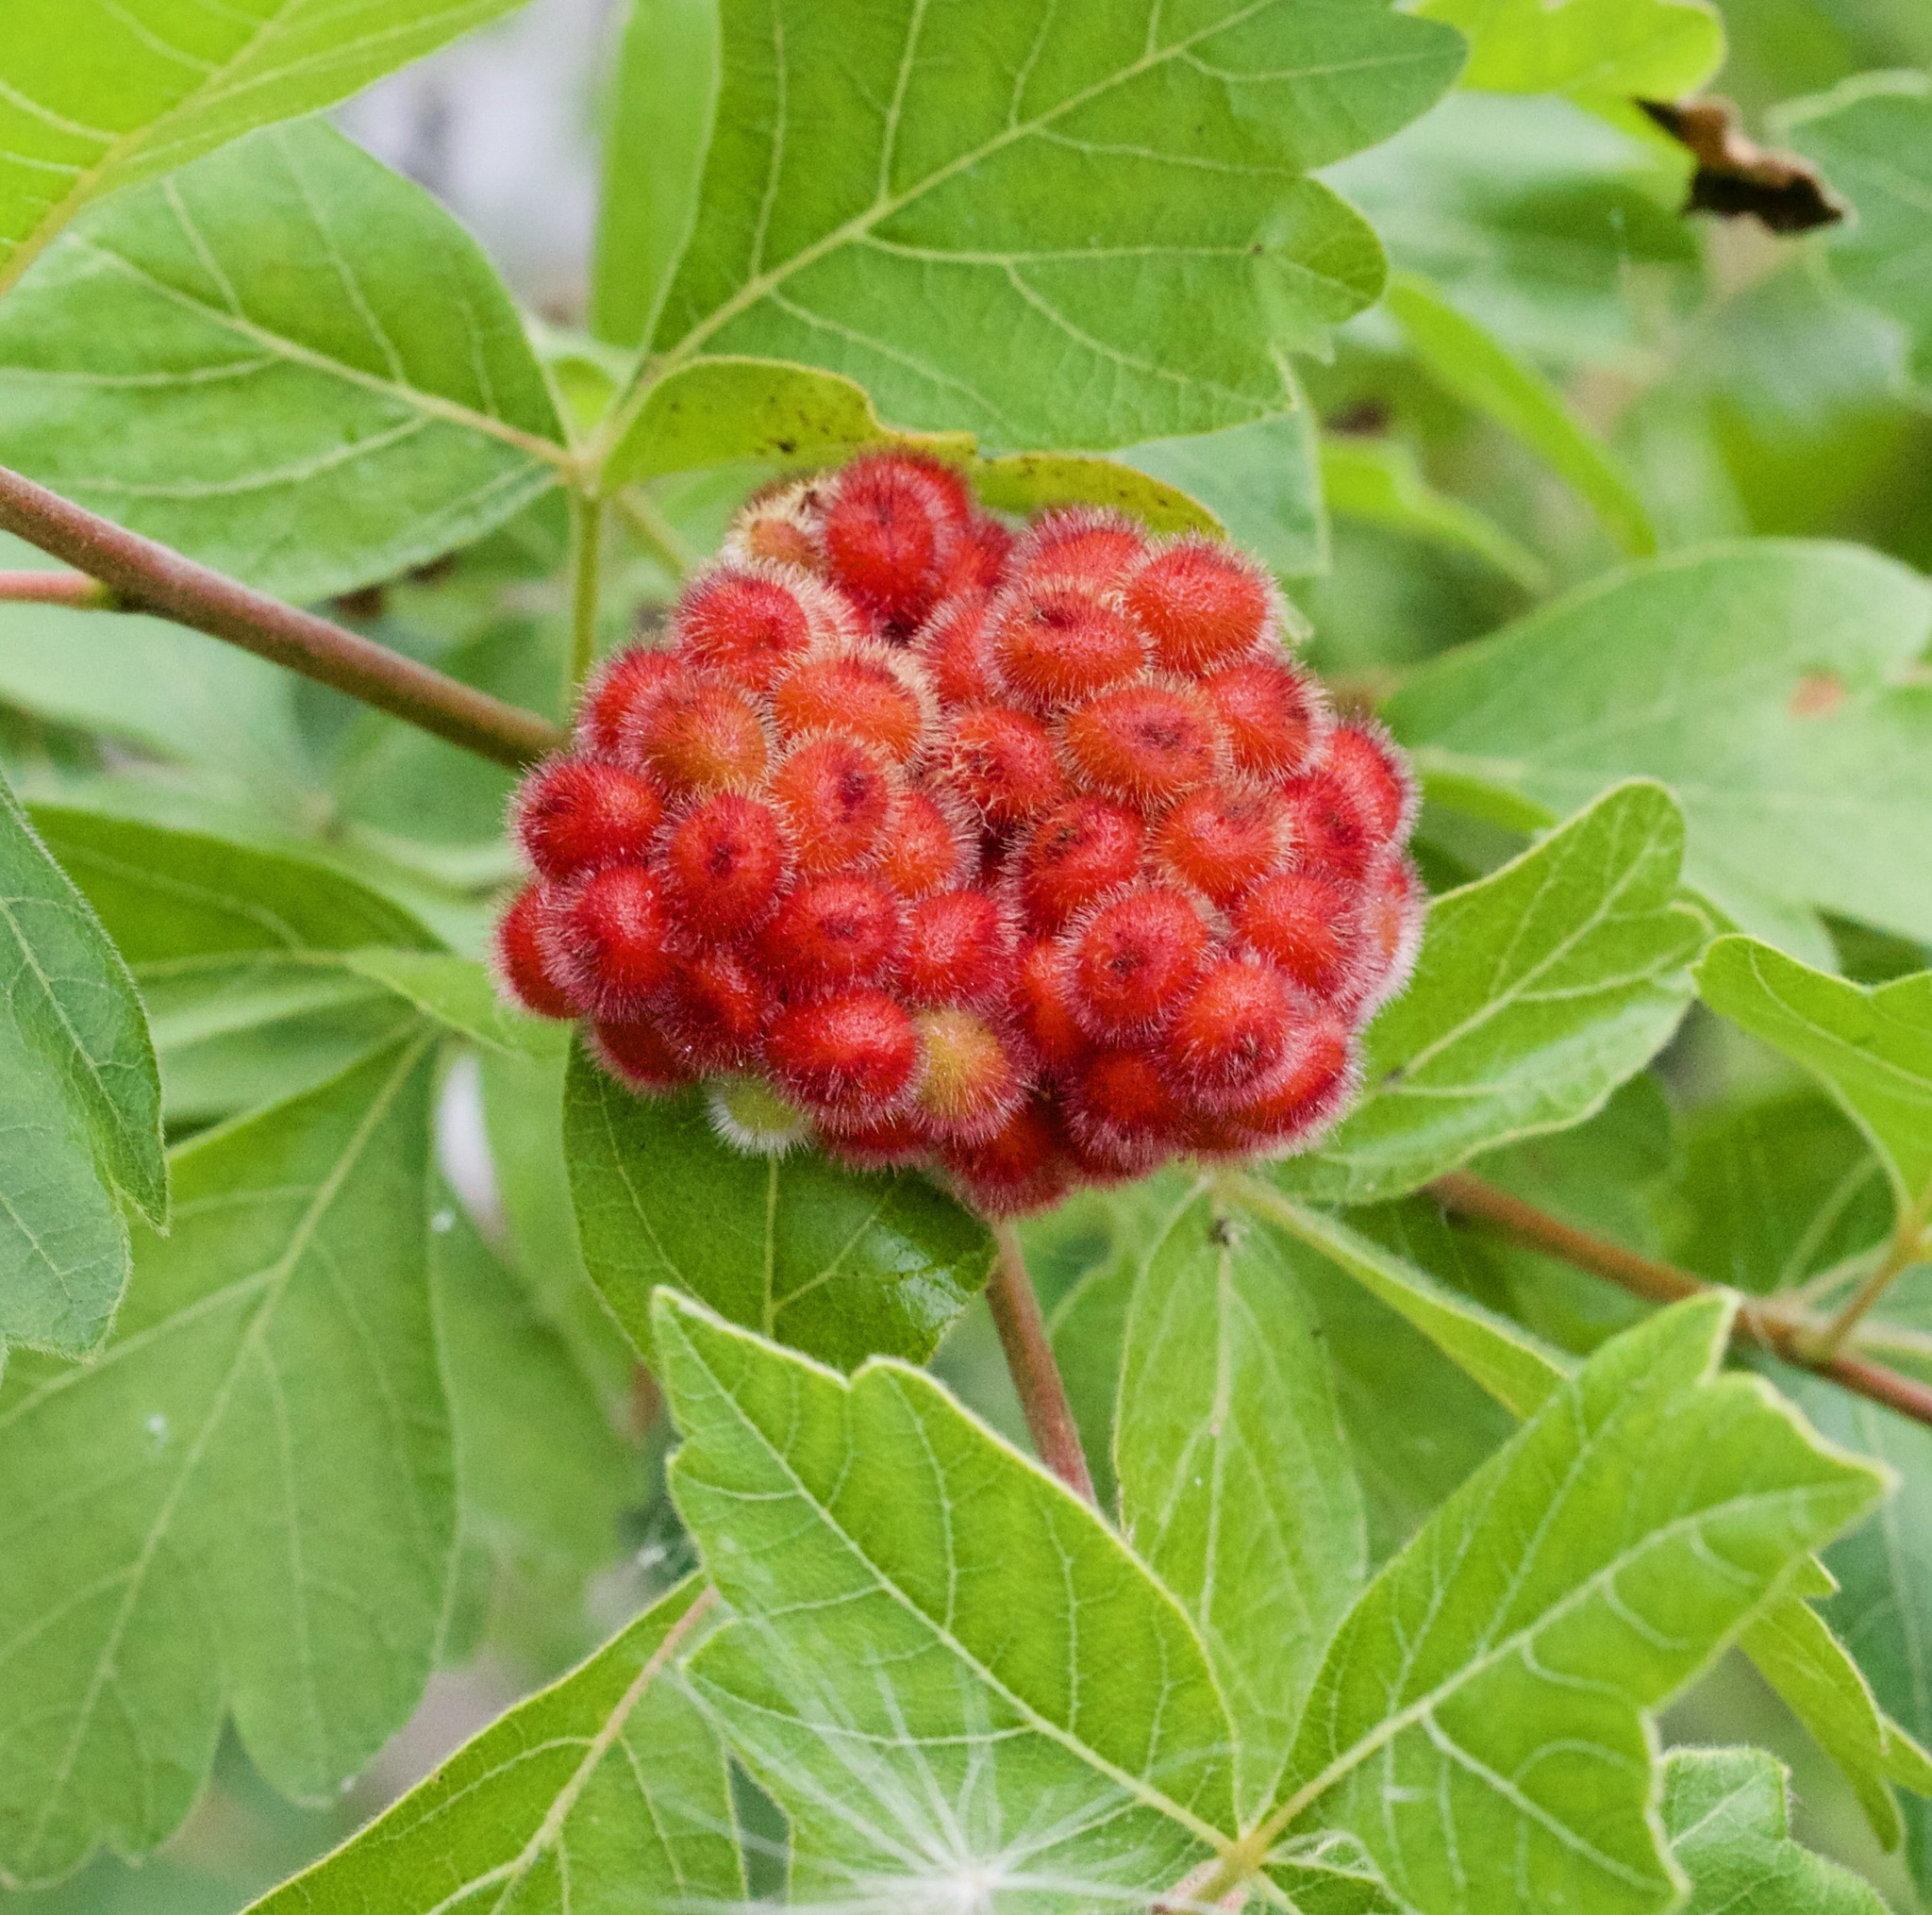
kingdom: Plantae
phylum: Tracheophyta
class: Magnoliopsida
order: Sapindales
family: Anacardiaceae
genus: Rhus
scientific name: Rhus aromatica
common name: Aromatic sumac
